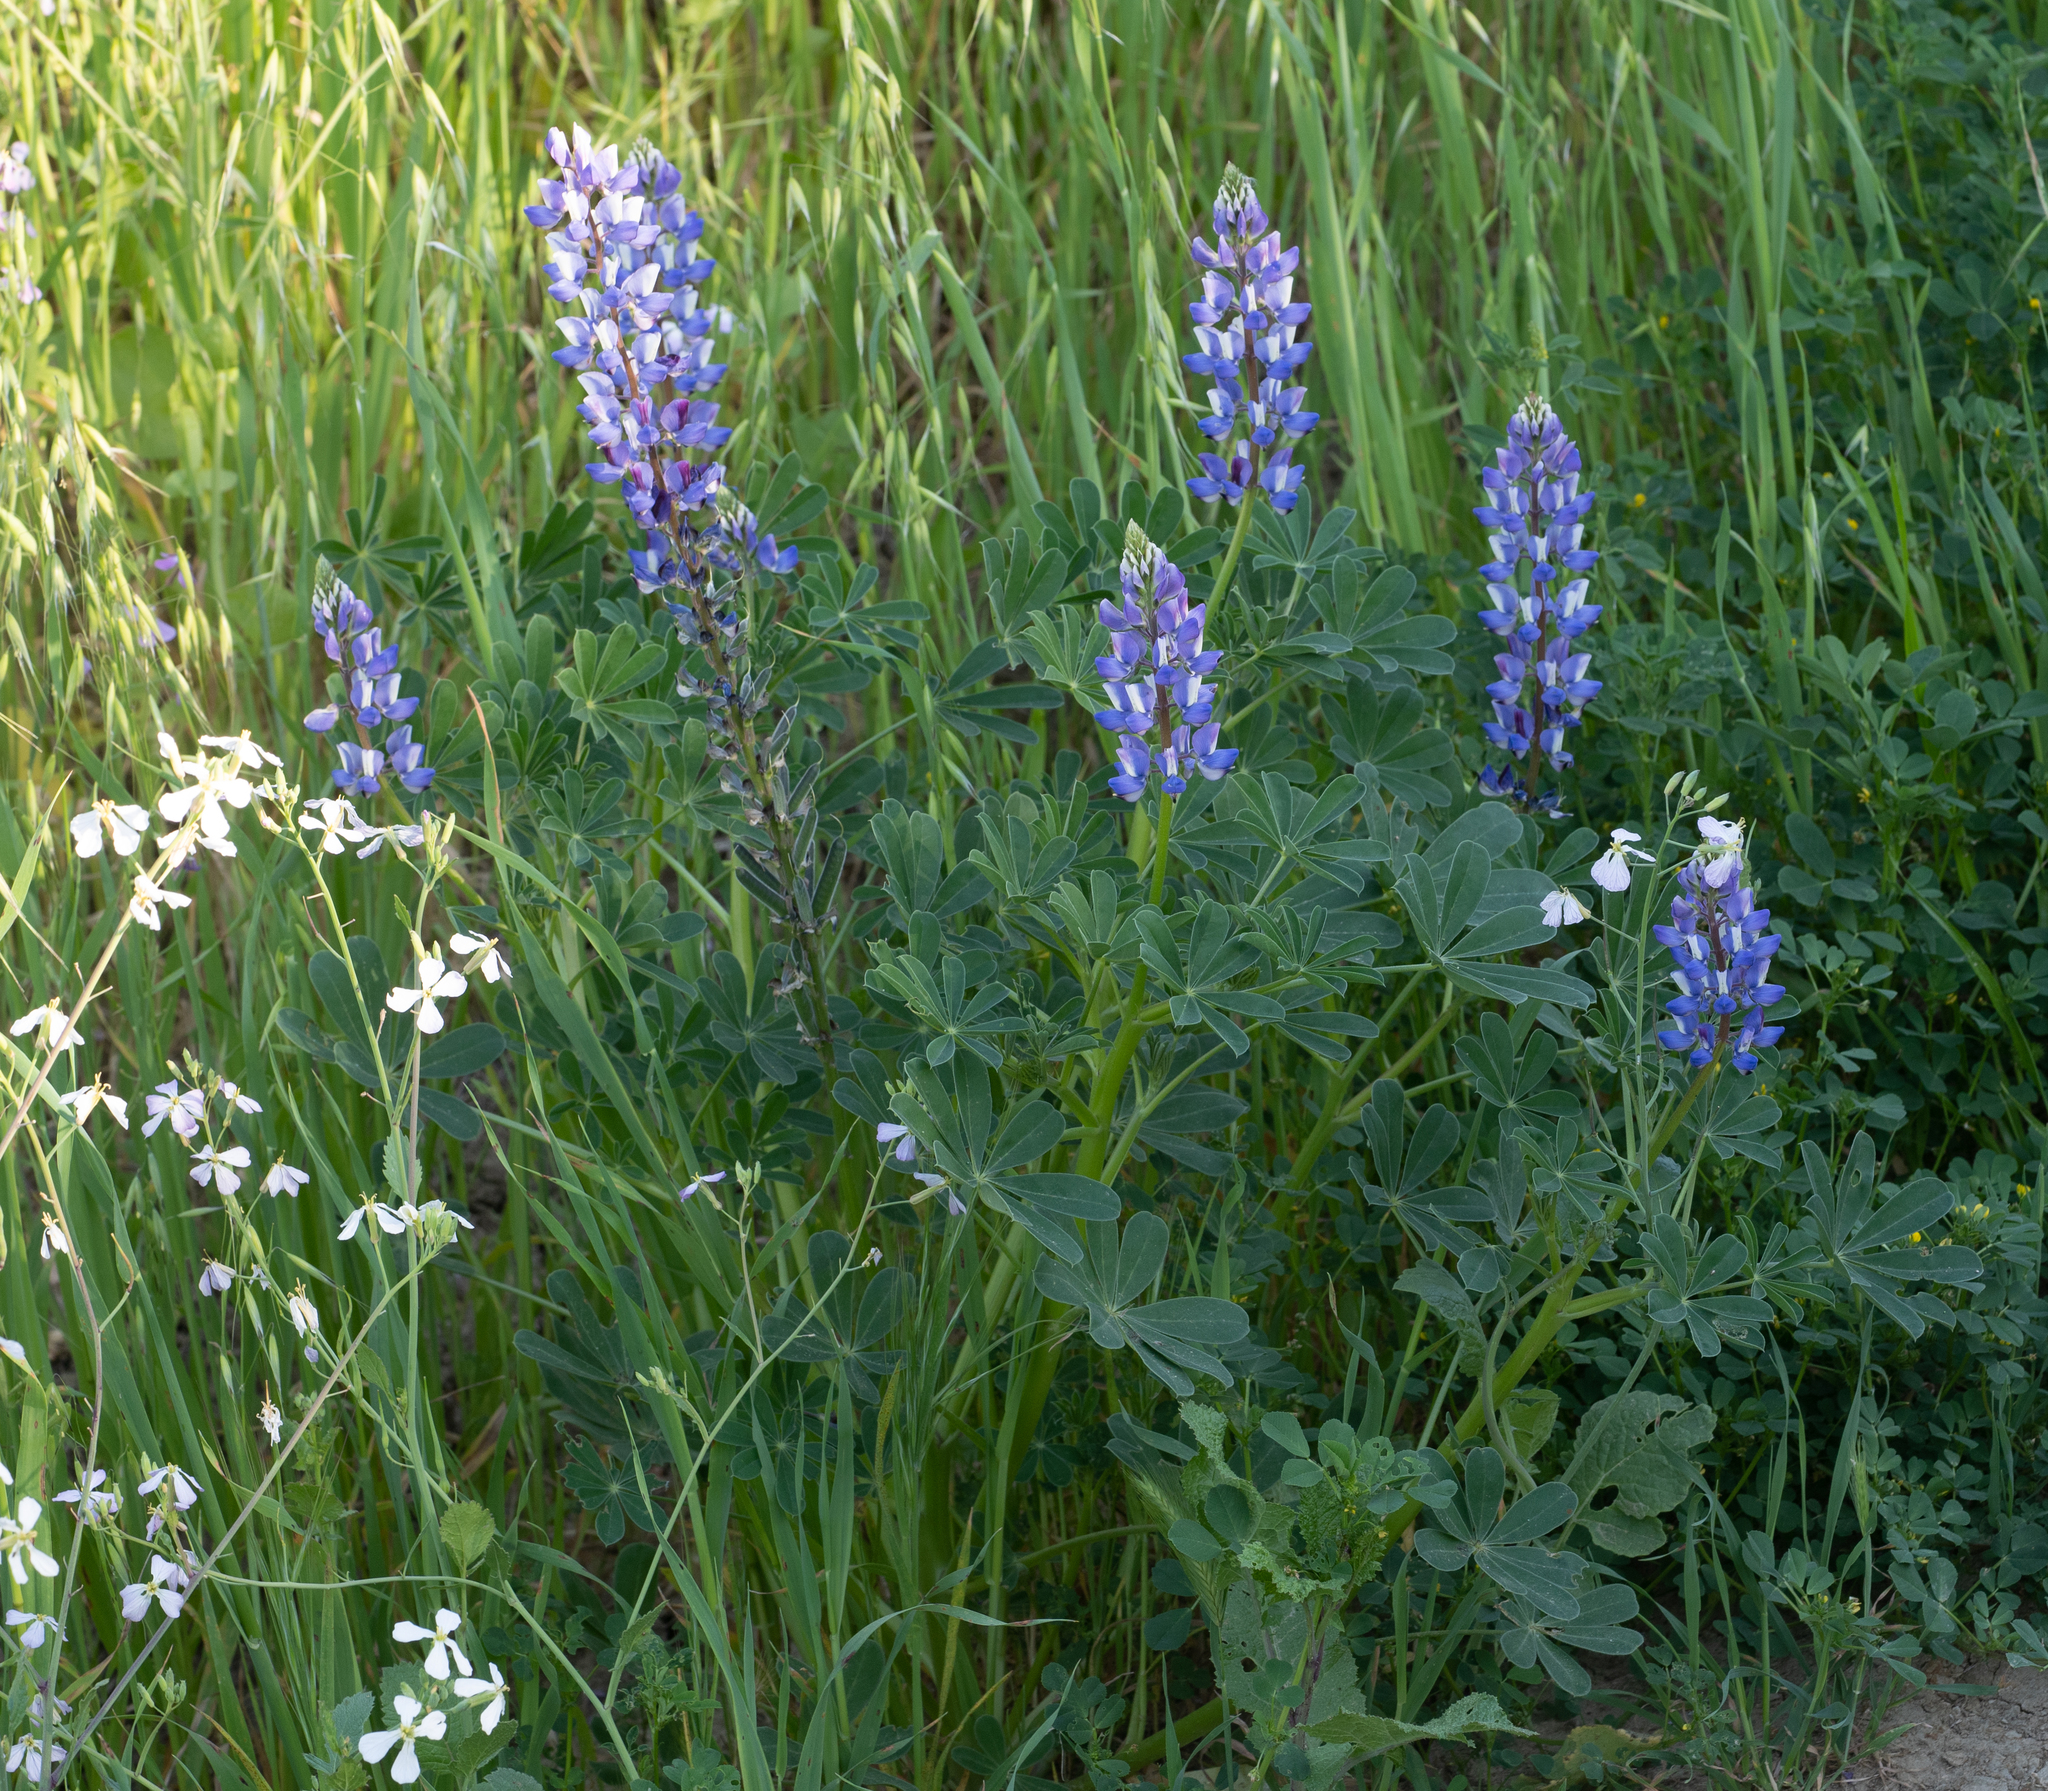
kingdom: Plantae
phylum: Tracheophyta
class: Magnoliopsida
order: Fabales
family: Fabaceae
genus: Lupinus
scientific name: Lupinus succulentus
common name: Arroyo lupine
